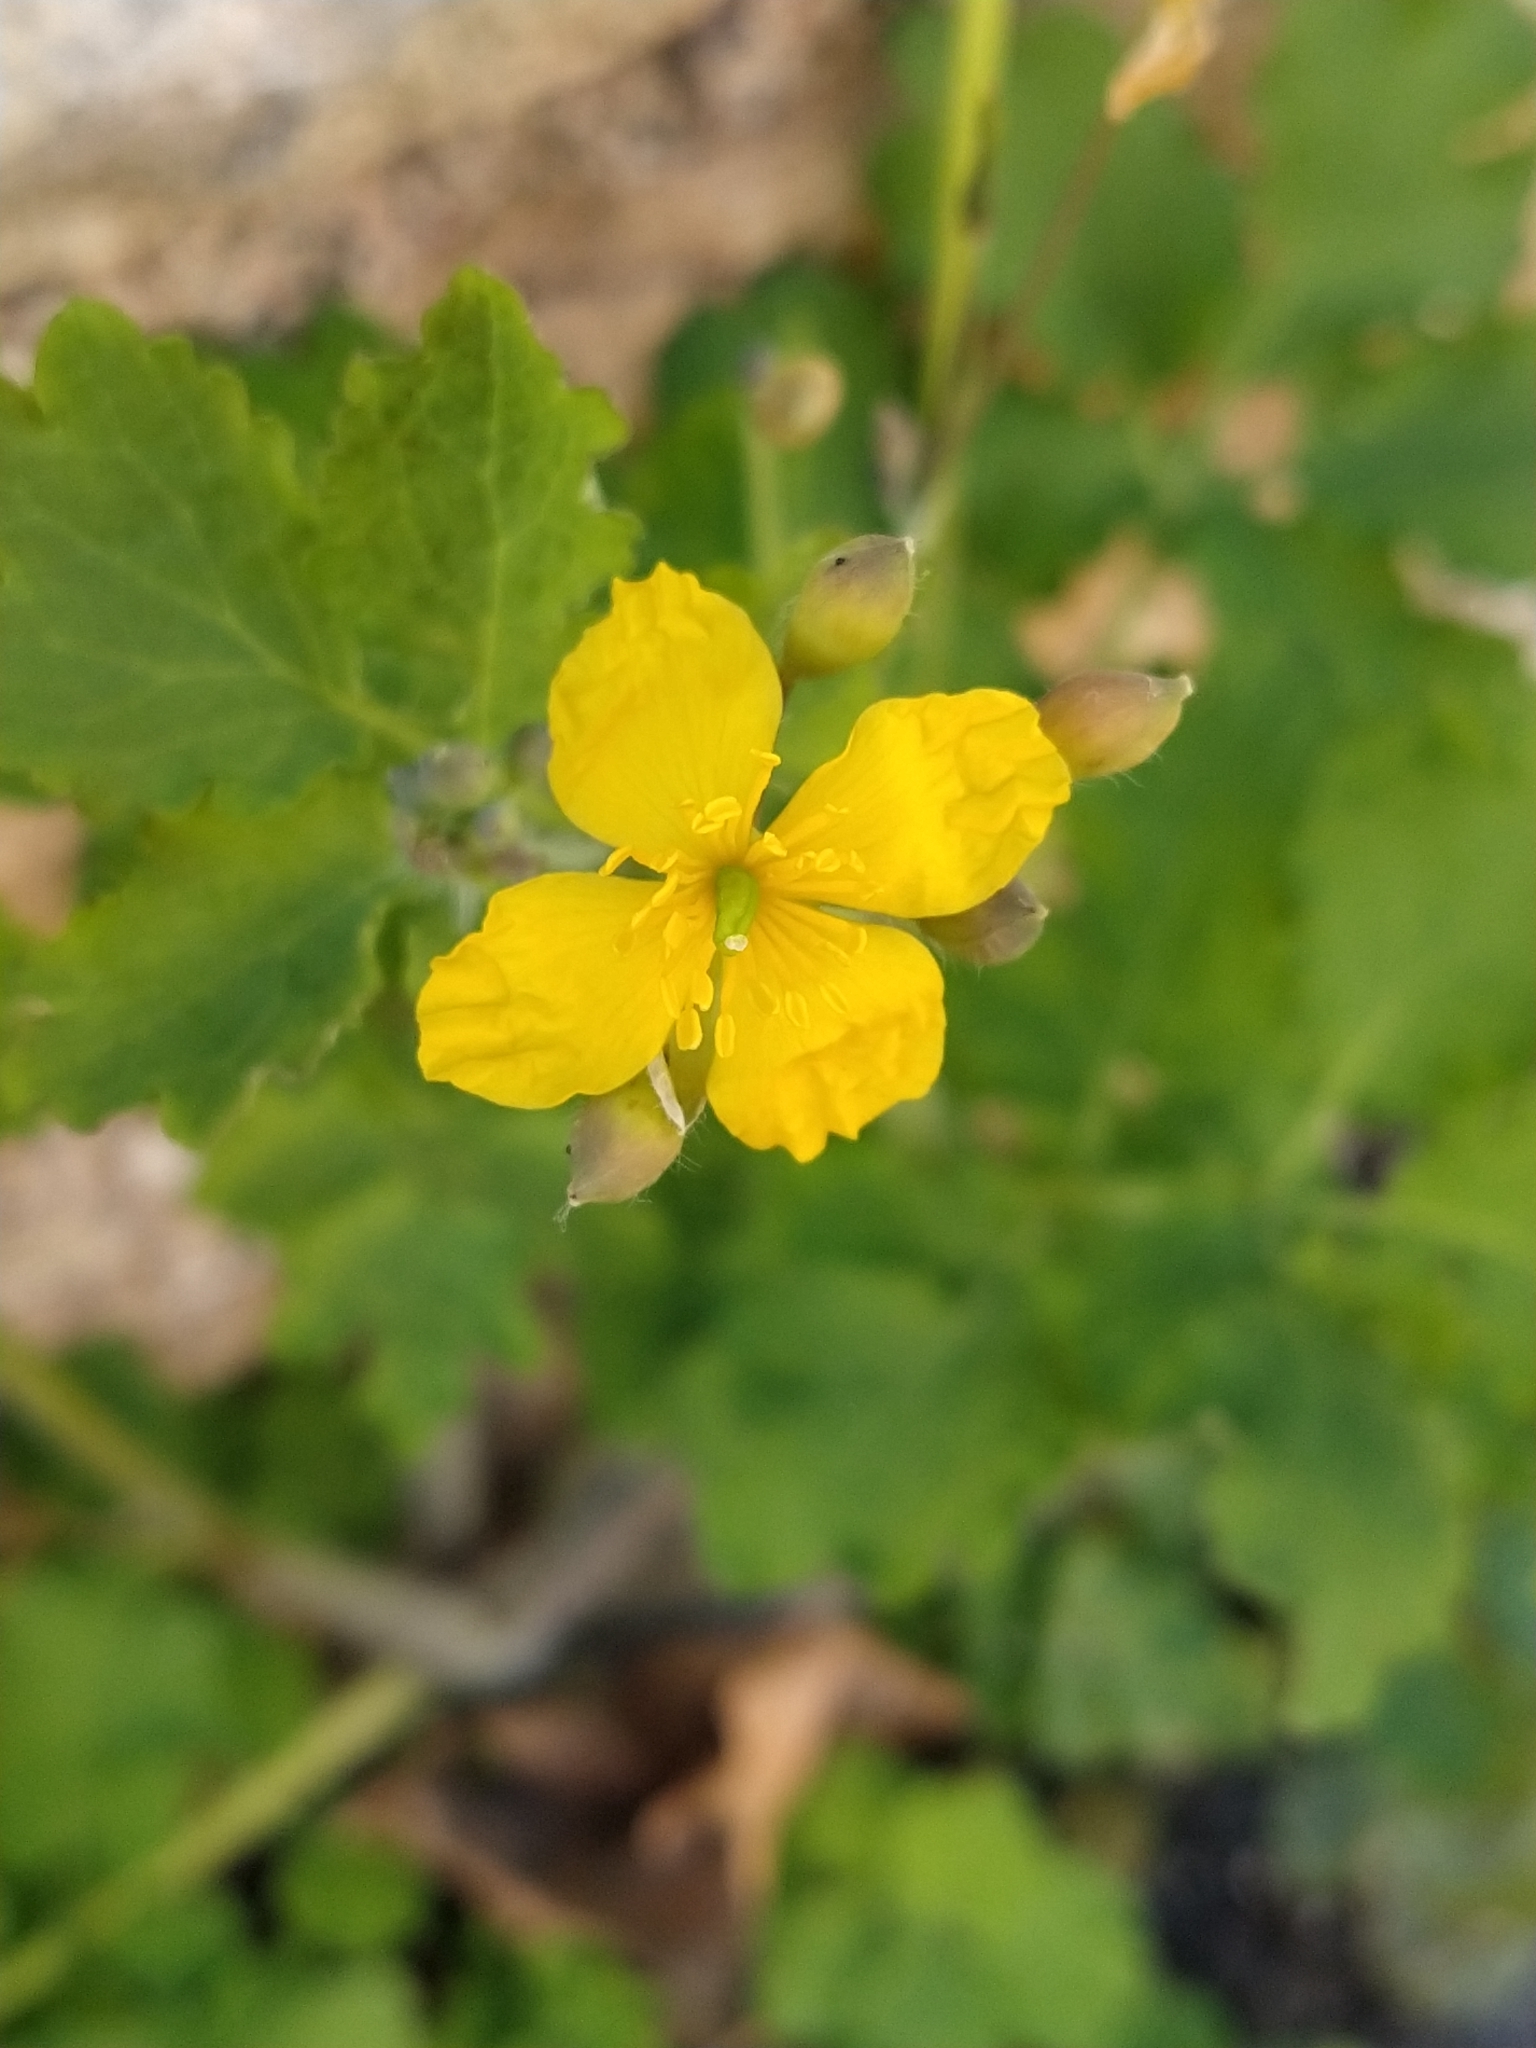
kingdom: Plantae
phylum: Tracheophyta
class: Magnoliopsida
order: Ranunculales
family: Papaveraceae
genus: Chelidonium
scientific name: Chelidonium majus
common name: Greater celandine
